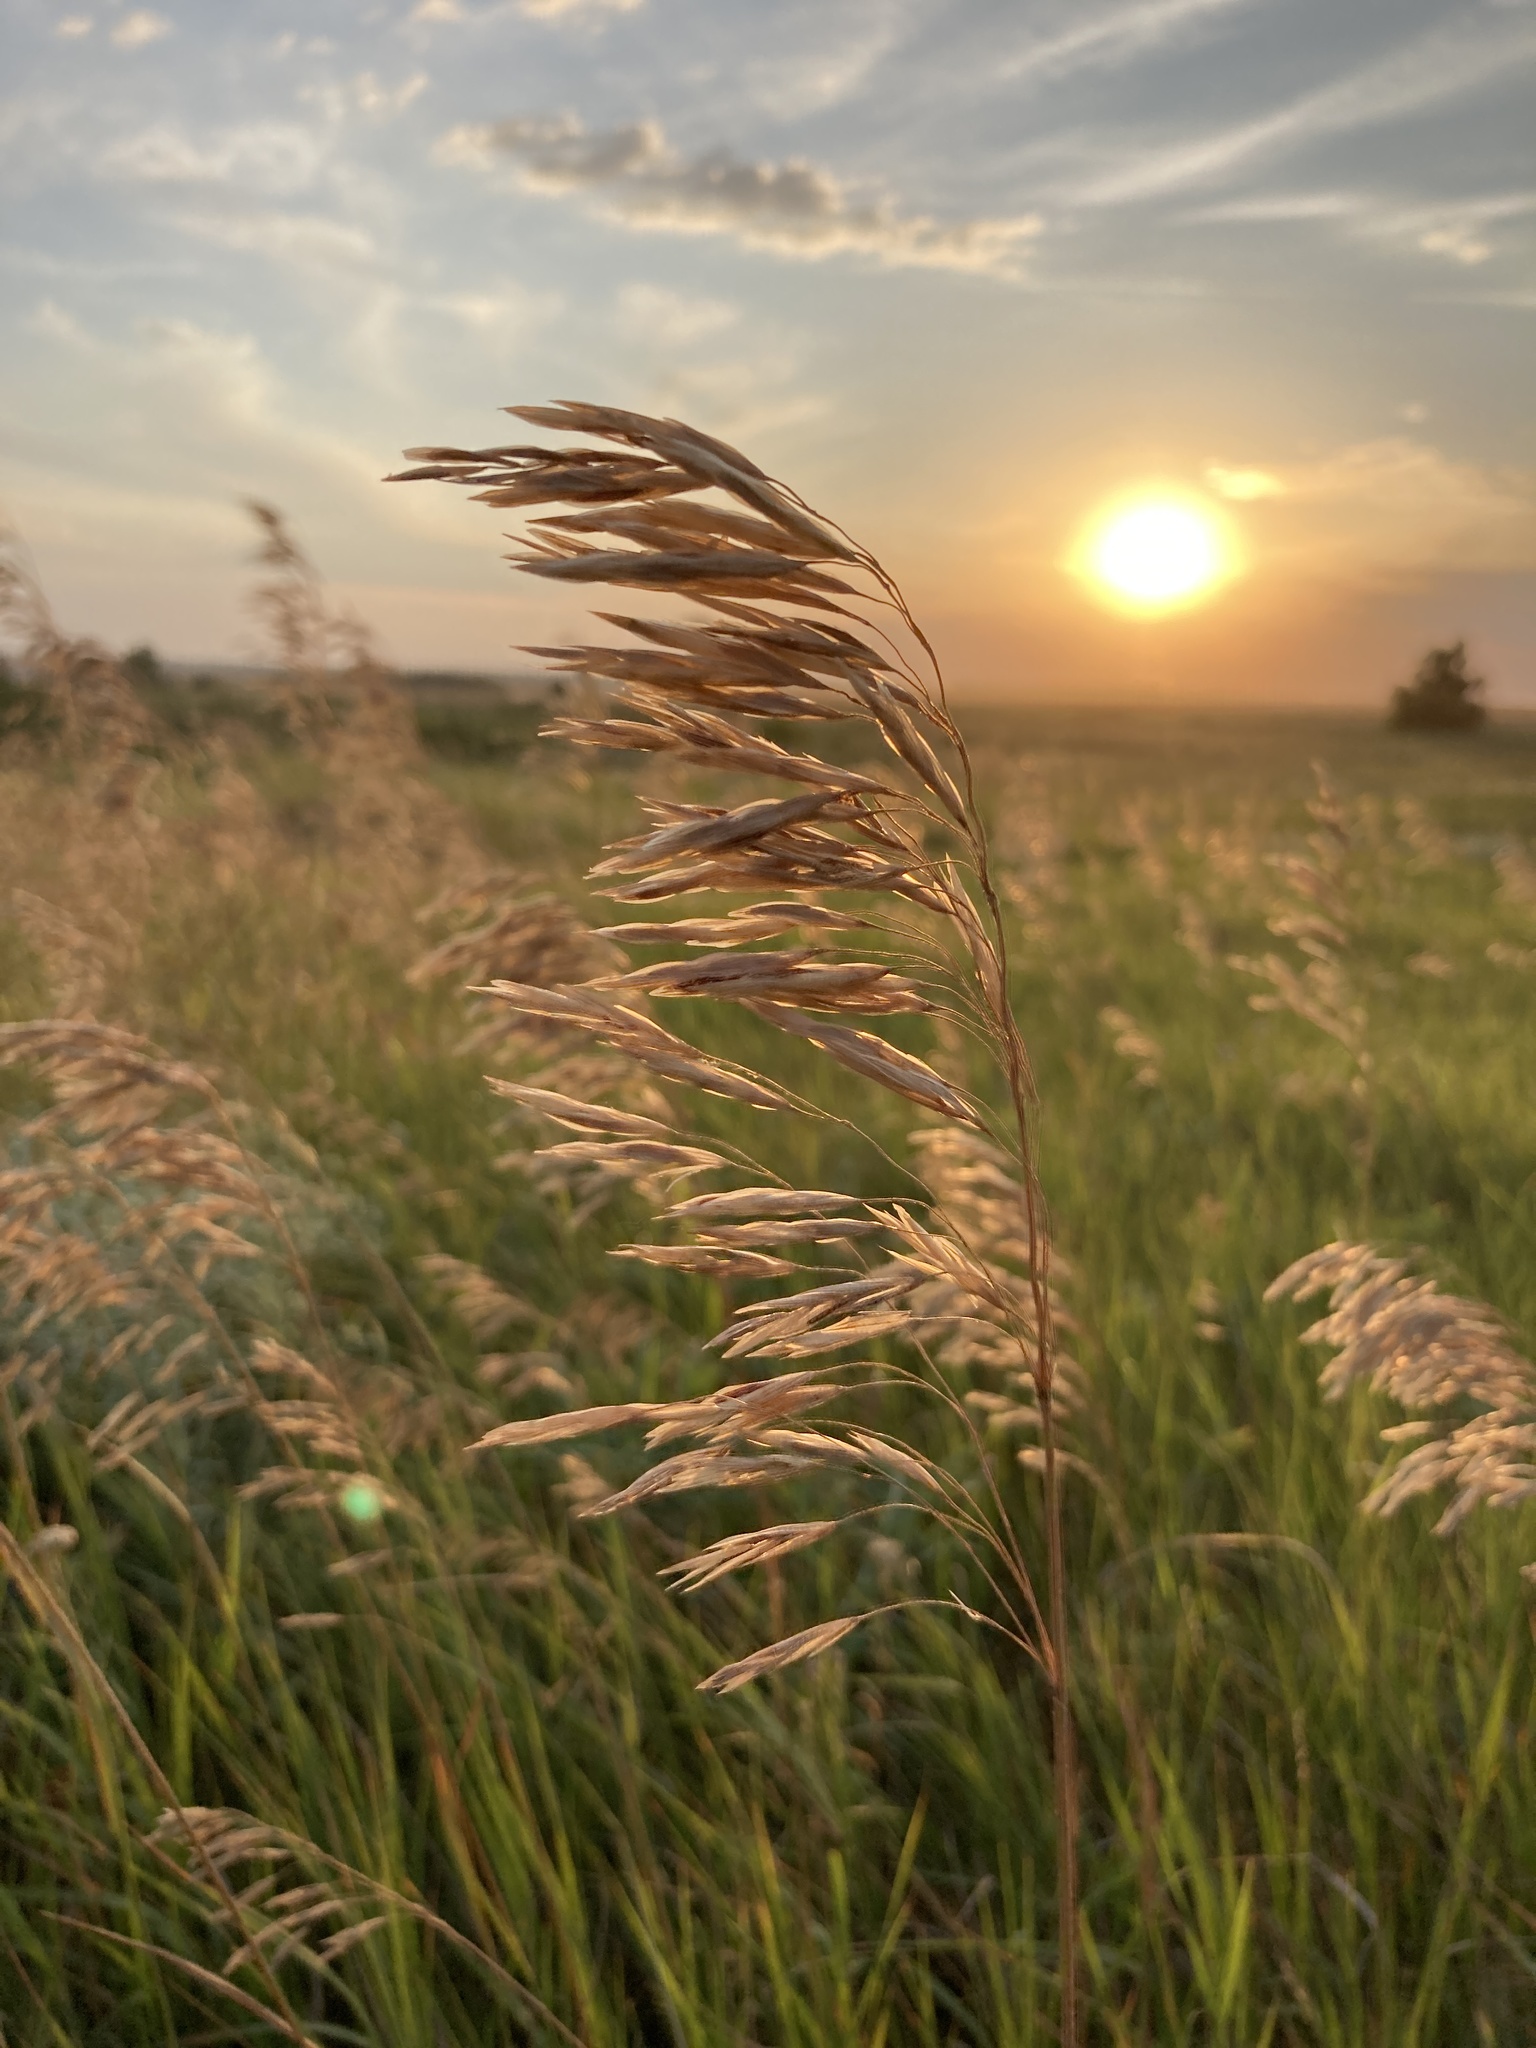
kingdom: Plantae
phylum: Tracheophyta
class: Liliopsida
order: Poales
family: Poaceae
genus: Bromus
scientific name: Bromus inermis
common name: Smooth brome
